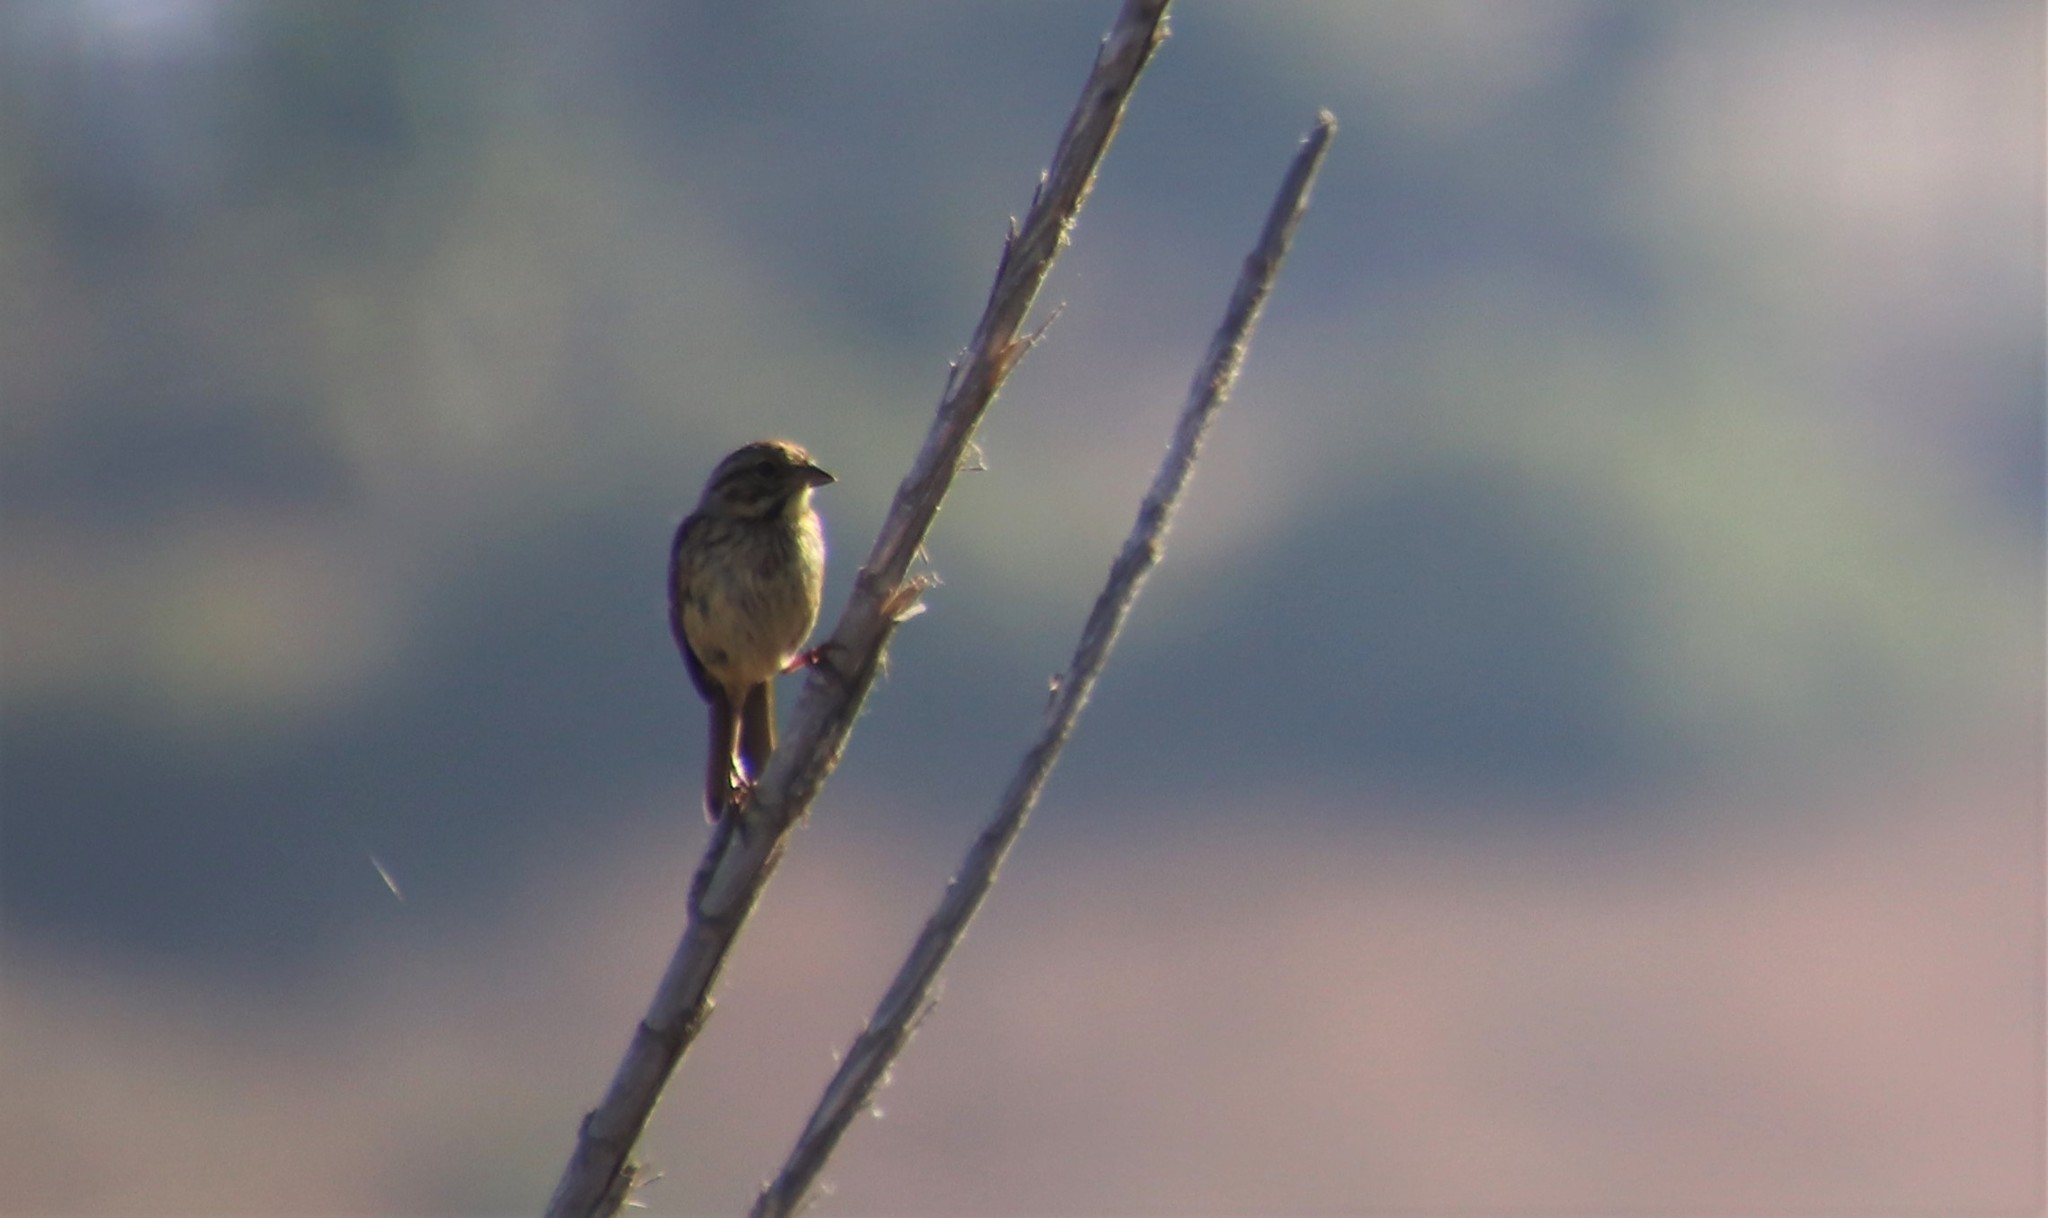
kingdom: Animalia
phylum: Chordata
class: Aves
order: Passeriformes
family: Passerellidae
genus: Melospiza
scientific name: Melospiza melodia
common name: Song sparrow
